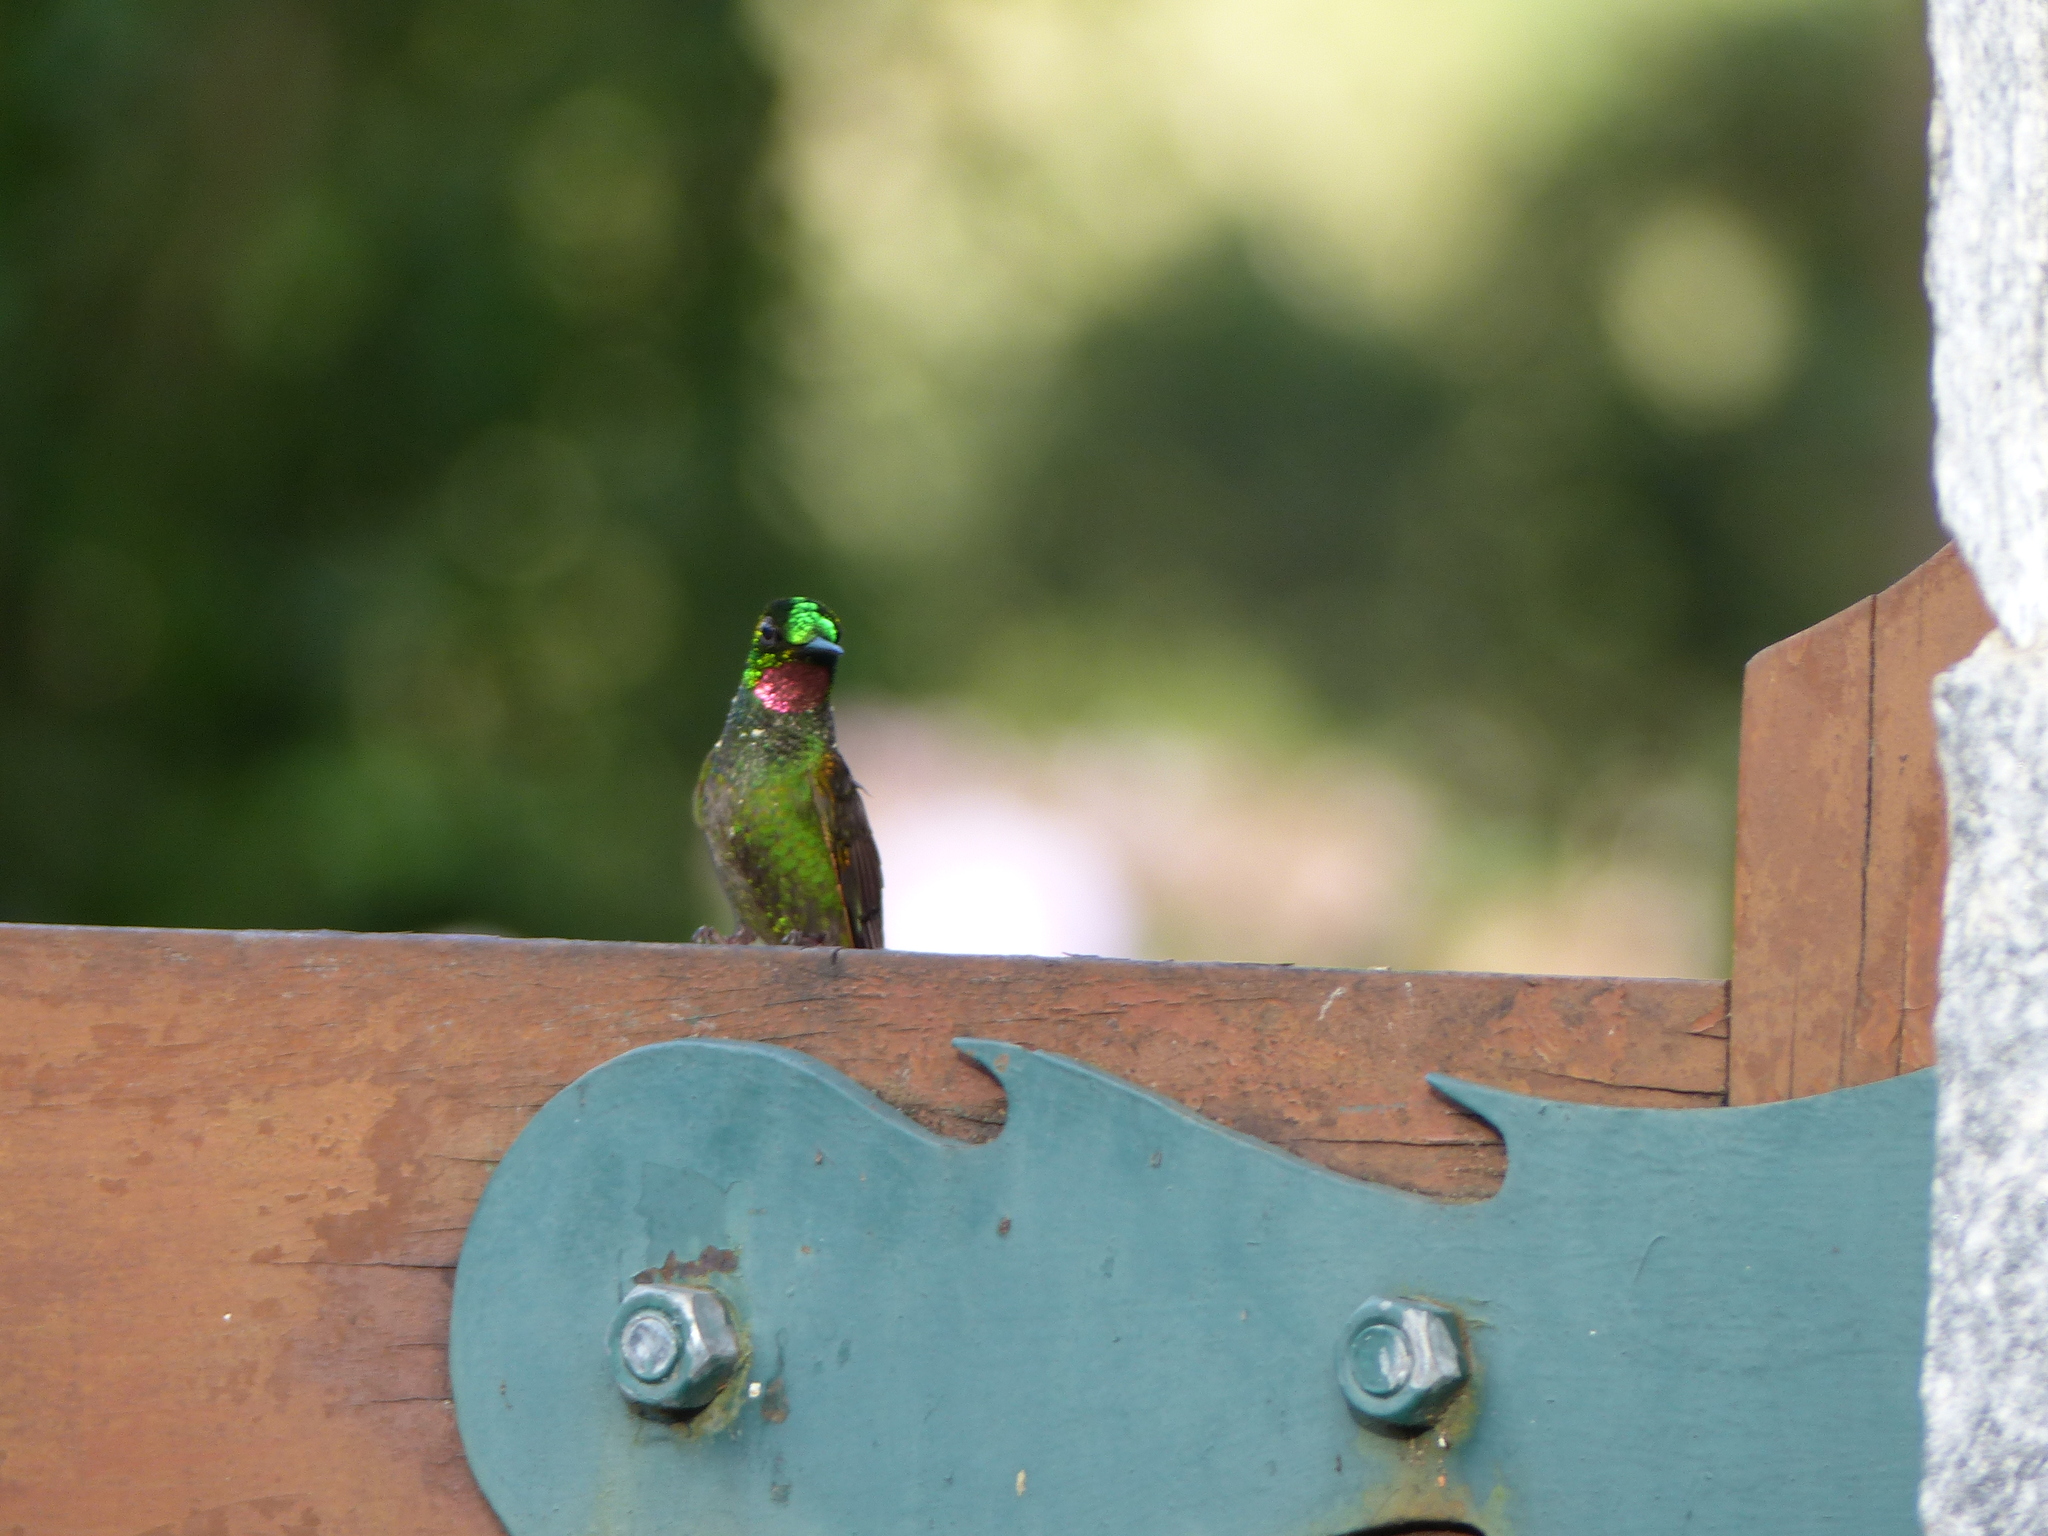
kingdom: Animalia
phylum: Chordata
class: Aves
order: Apodiformes
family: Trochilidae
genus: Clytolaema
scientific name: Clytolaema rubricauda
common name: Brazilian ruby
